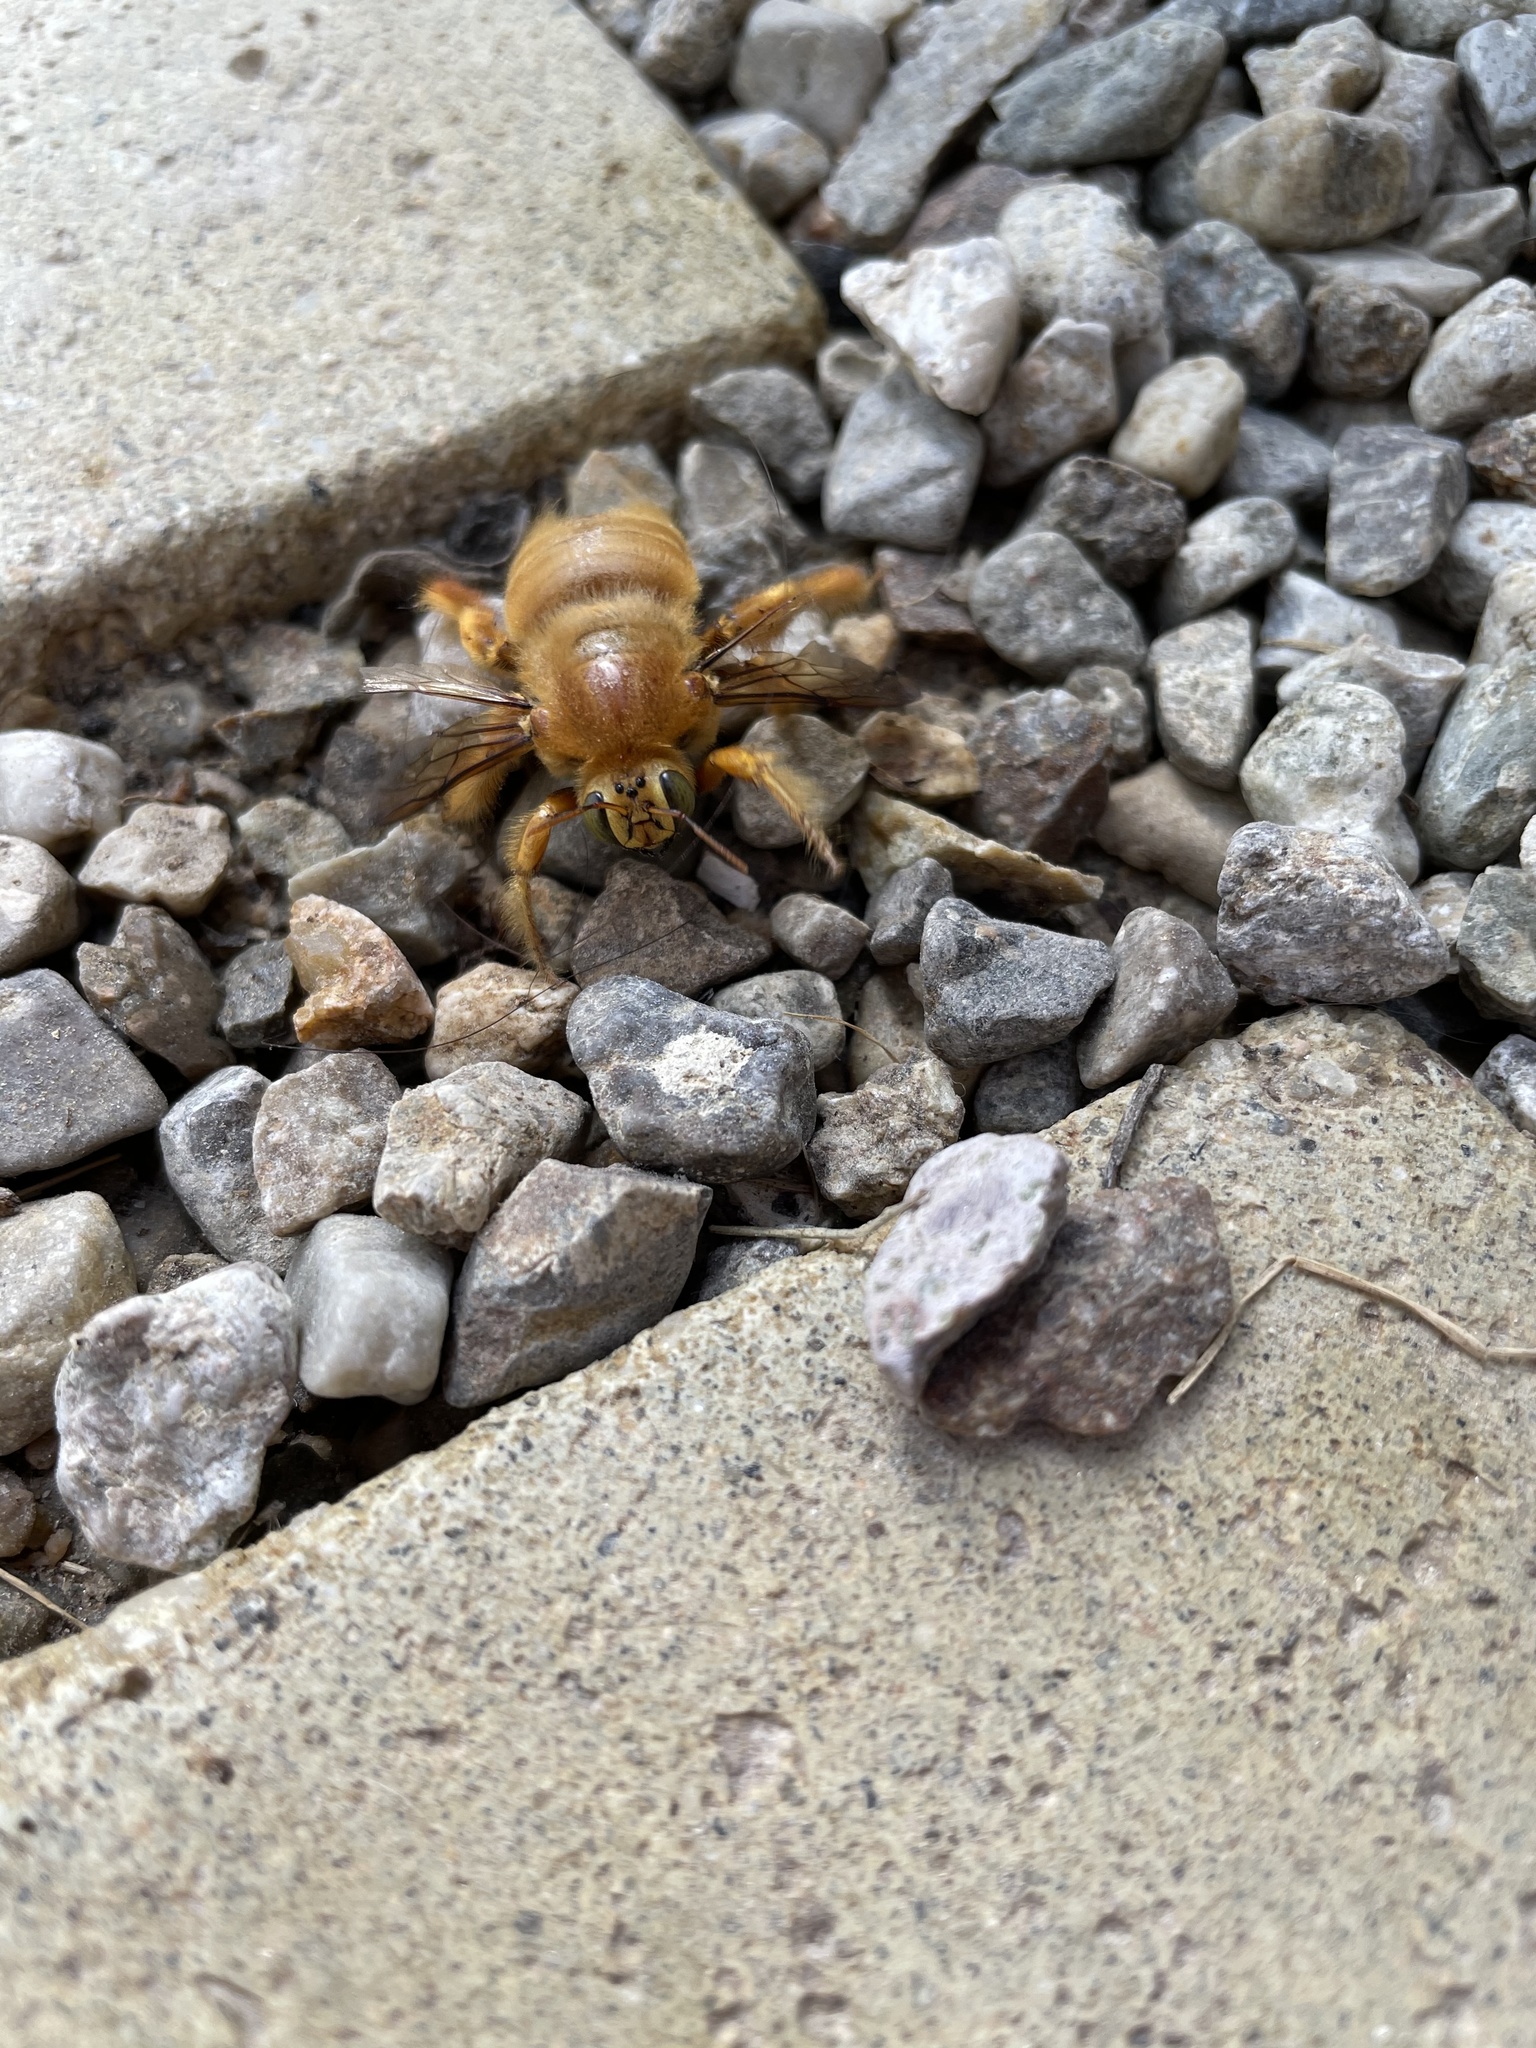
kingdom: Animalia
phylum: Arthropoda
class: Insecta
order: Hymenoptera
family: Apidae
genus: Xylocopa
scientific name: Xylocopa sonorina
